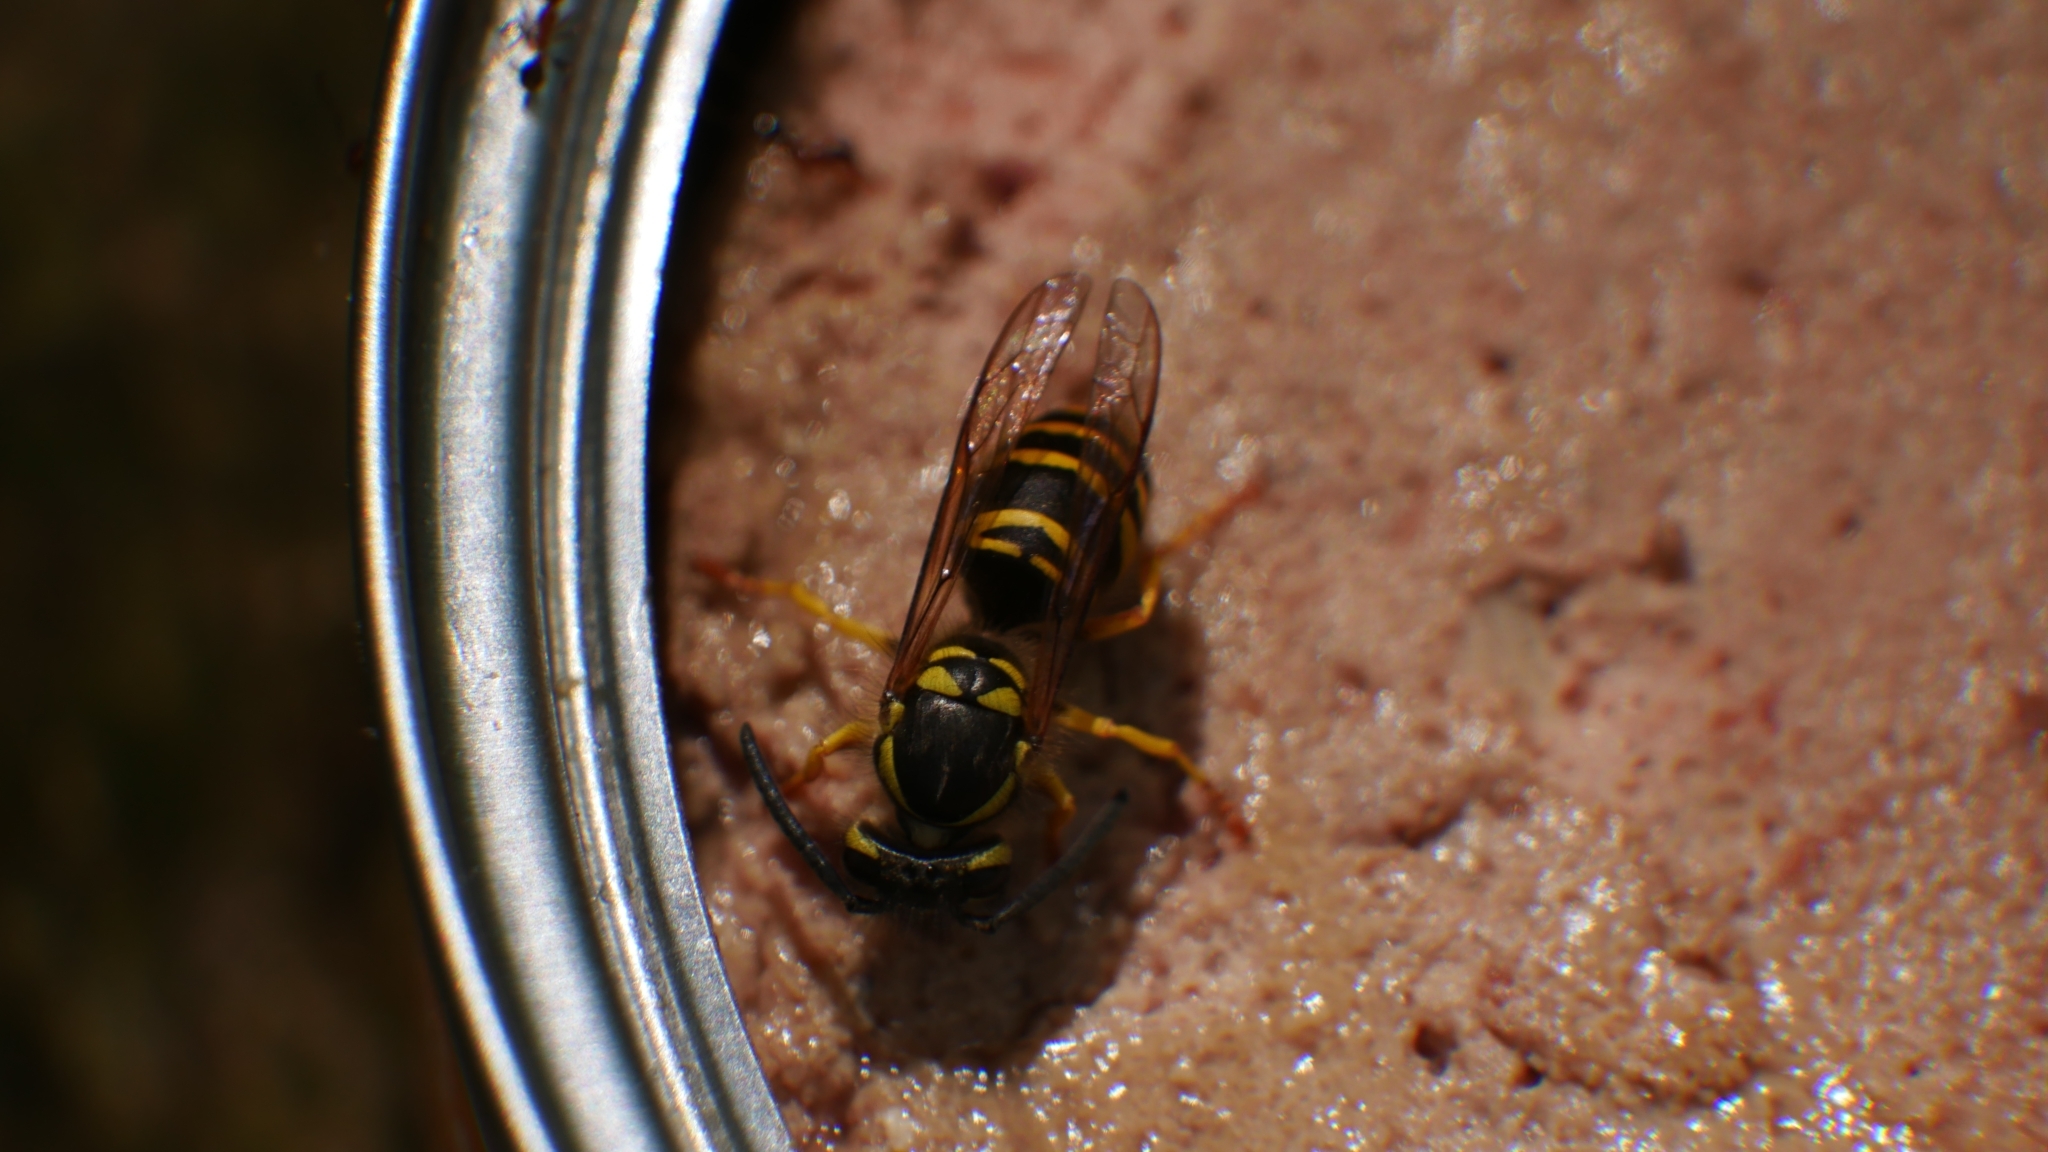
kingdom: Animalia
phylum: Arthropoda
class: Insecta
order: Hymenoptera
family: Vespidae
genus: Vespula
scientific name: Vespula maculifrons
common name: Eastern yellowjacket
